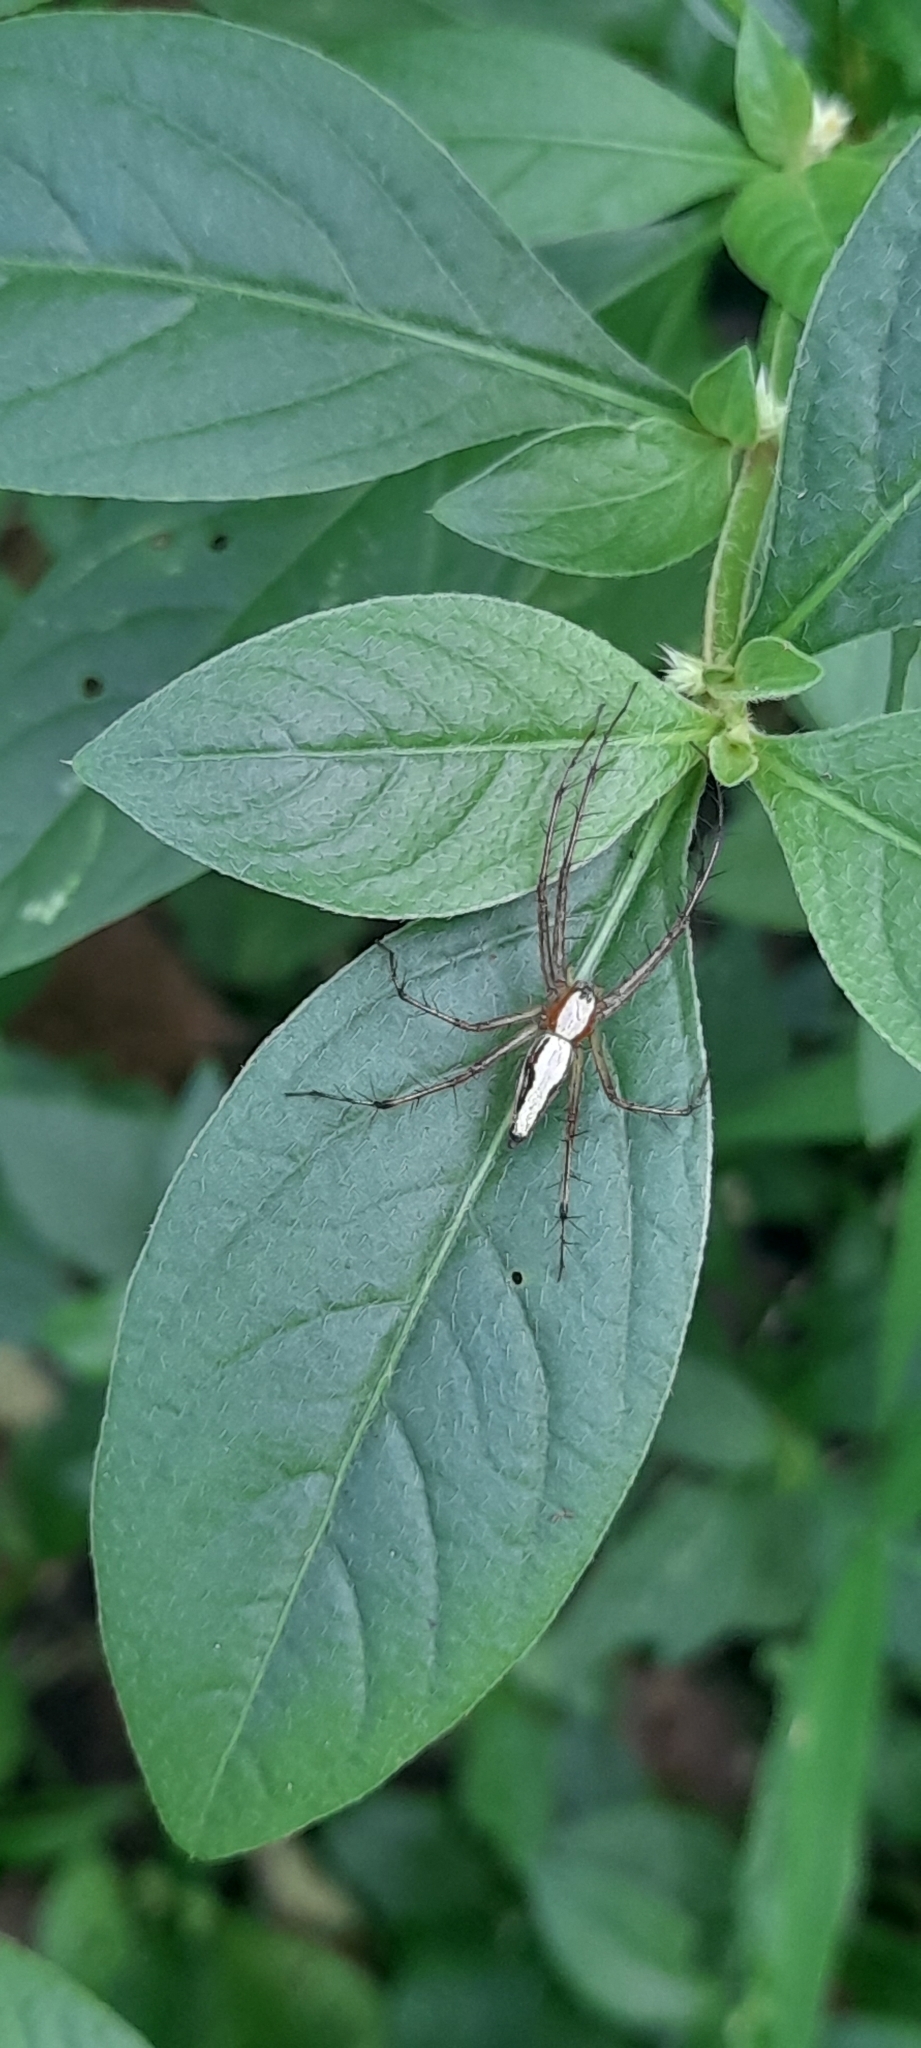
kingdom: Animalia
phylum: Arthropoda
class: Arachnida
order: Araneae
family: Oxyopidae
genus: Oxyopes
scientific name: Oxyopes shweta
